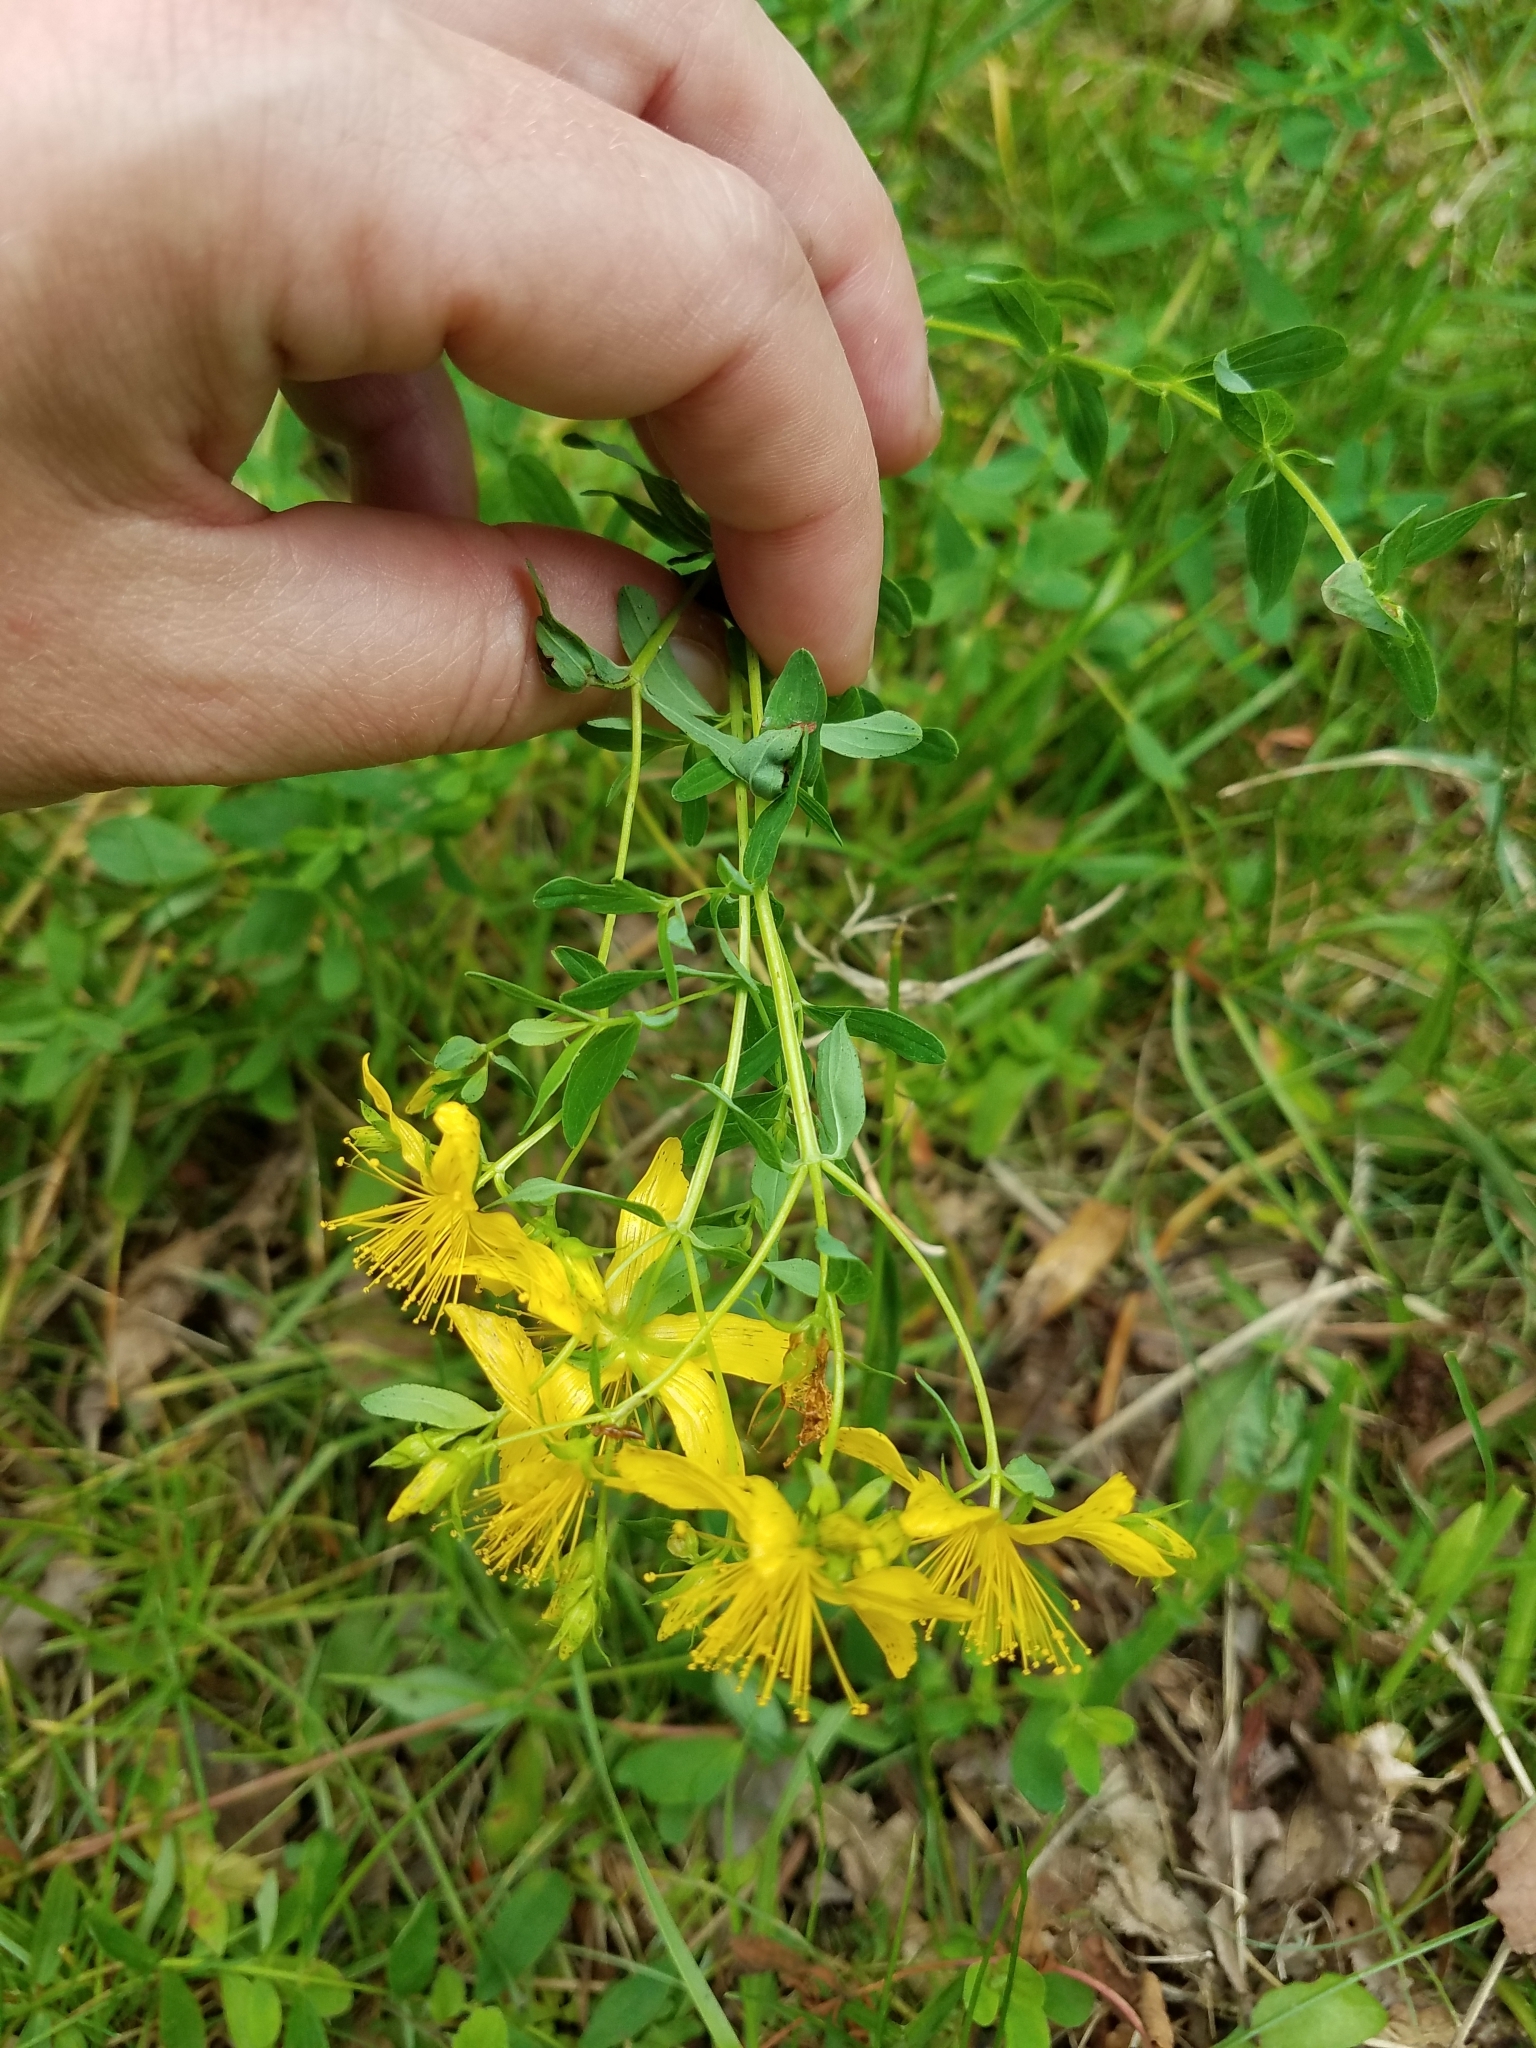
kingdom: Plantae
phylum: Tracheophyta
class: Magnoliopsida
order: Malpighiales
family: Hypericaceae
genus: Hypericum
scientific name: Hypericum perforatum
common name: Common st. johnswort
